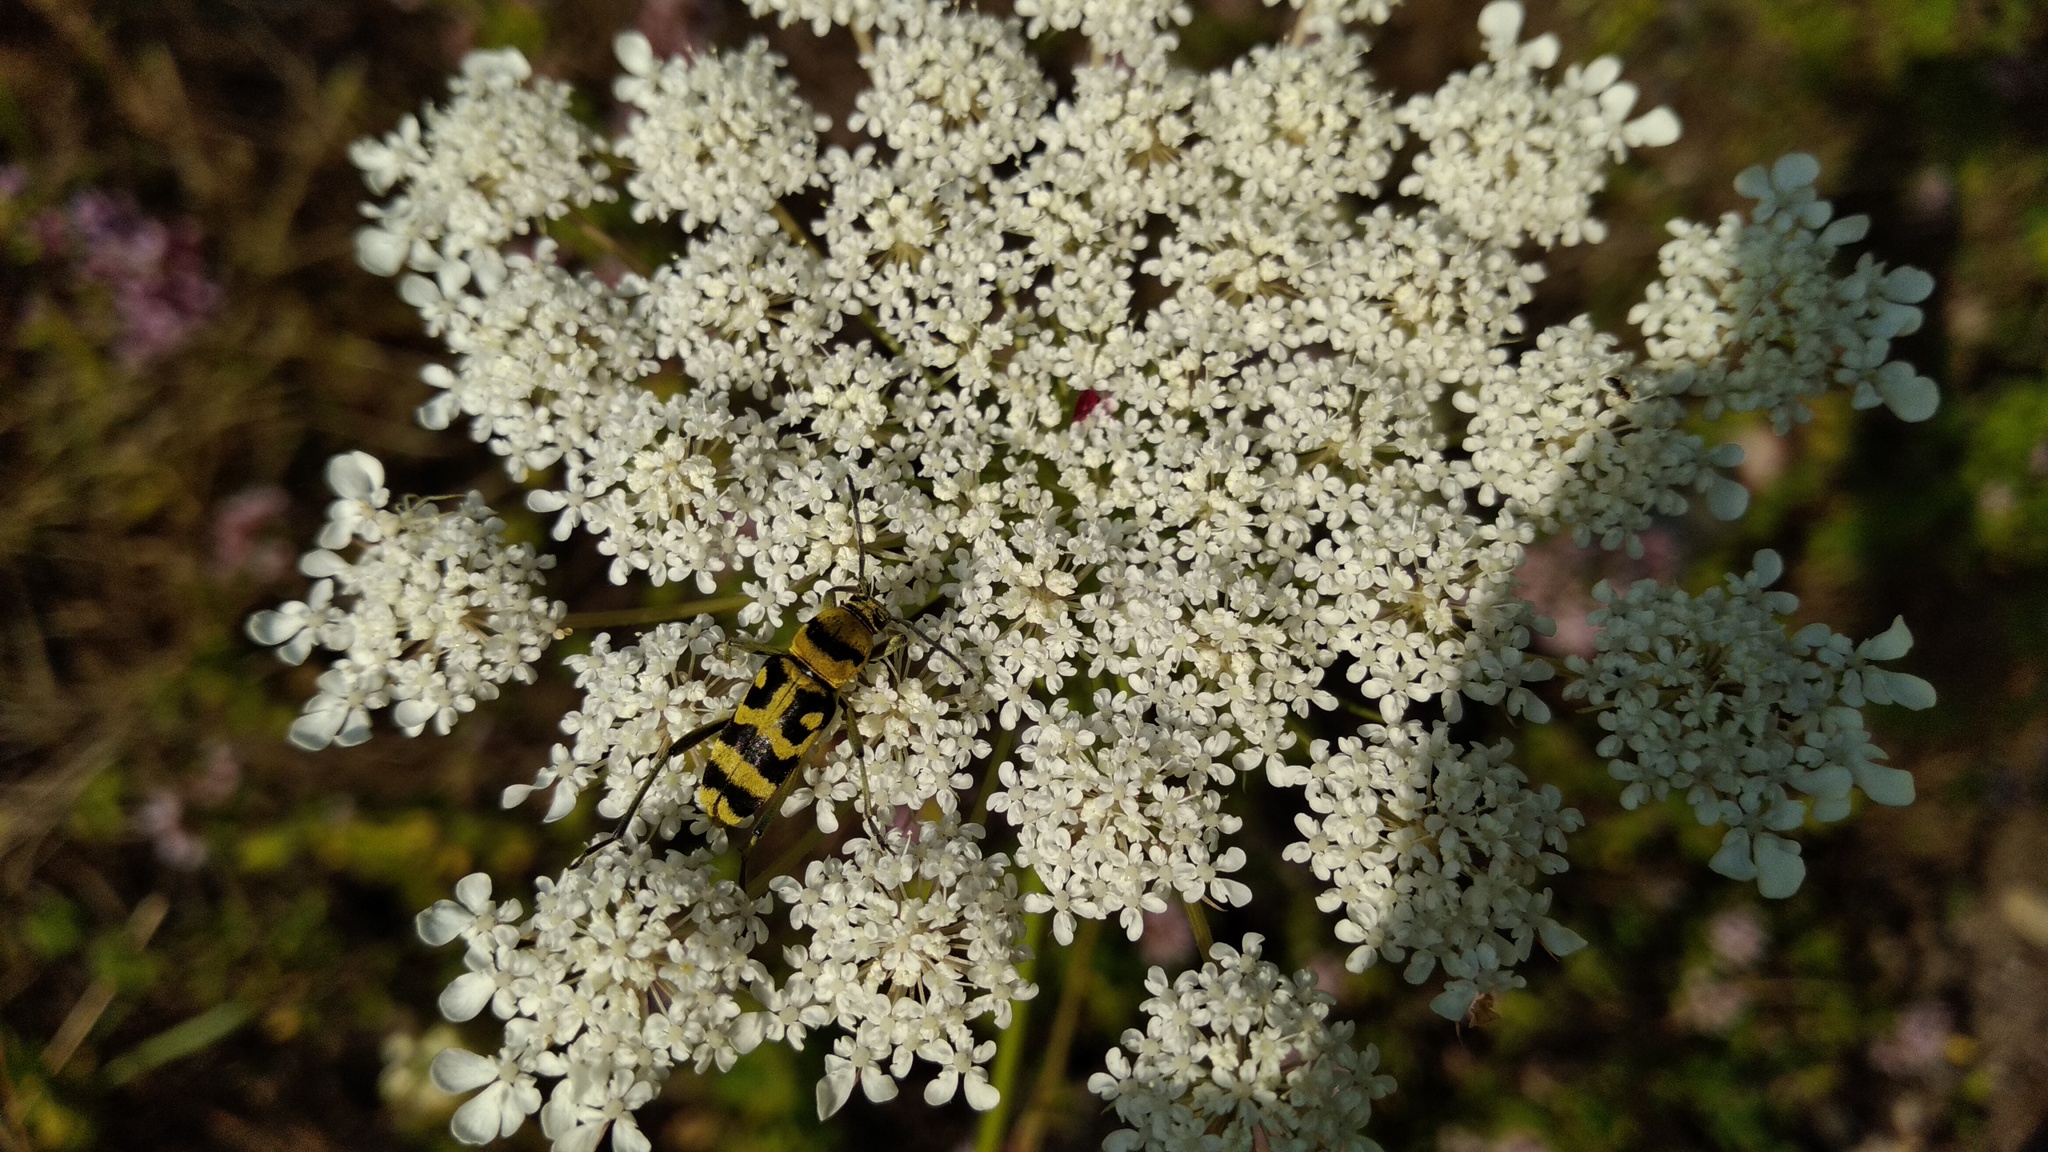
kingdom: Animalia
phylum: Arthropoda
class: Insecta
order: Coleoptera
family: Cerambycidae
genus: Chlorophorus
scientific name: Chlorophorus varius
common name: Grape wood borer
